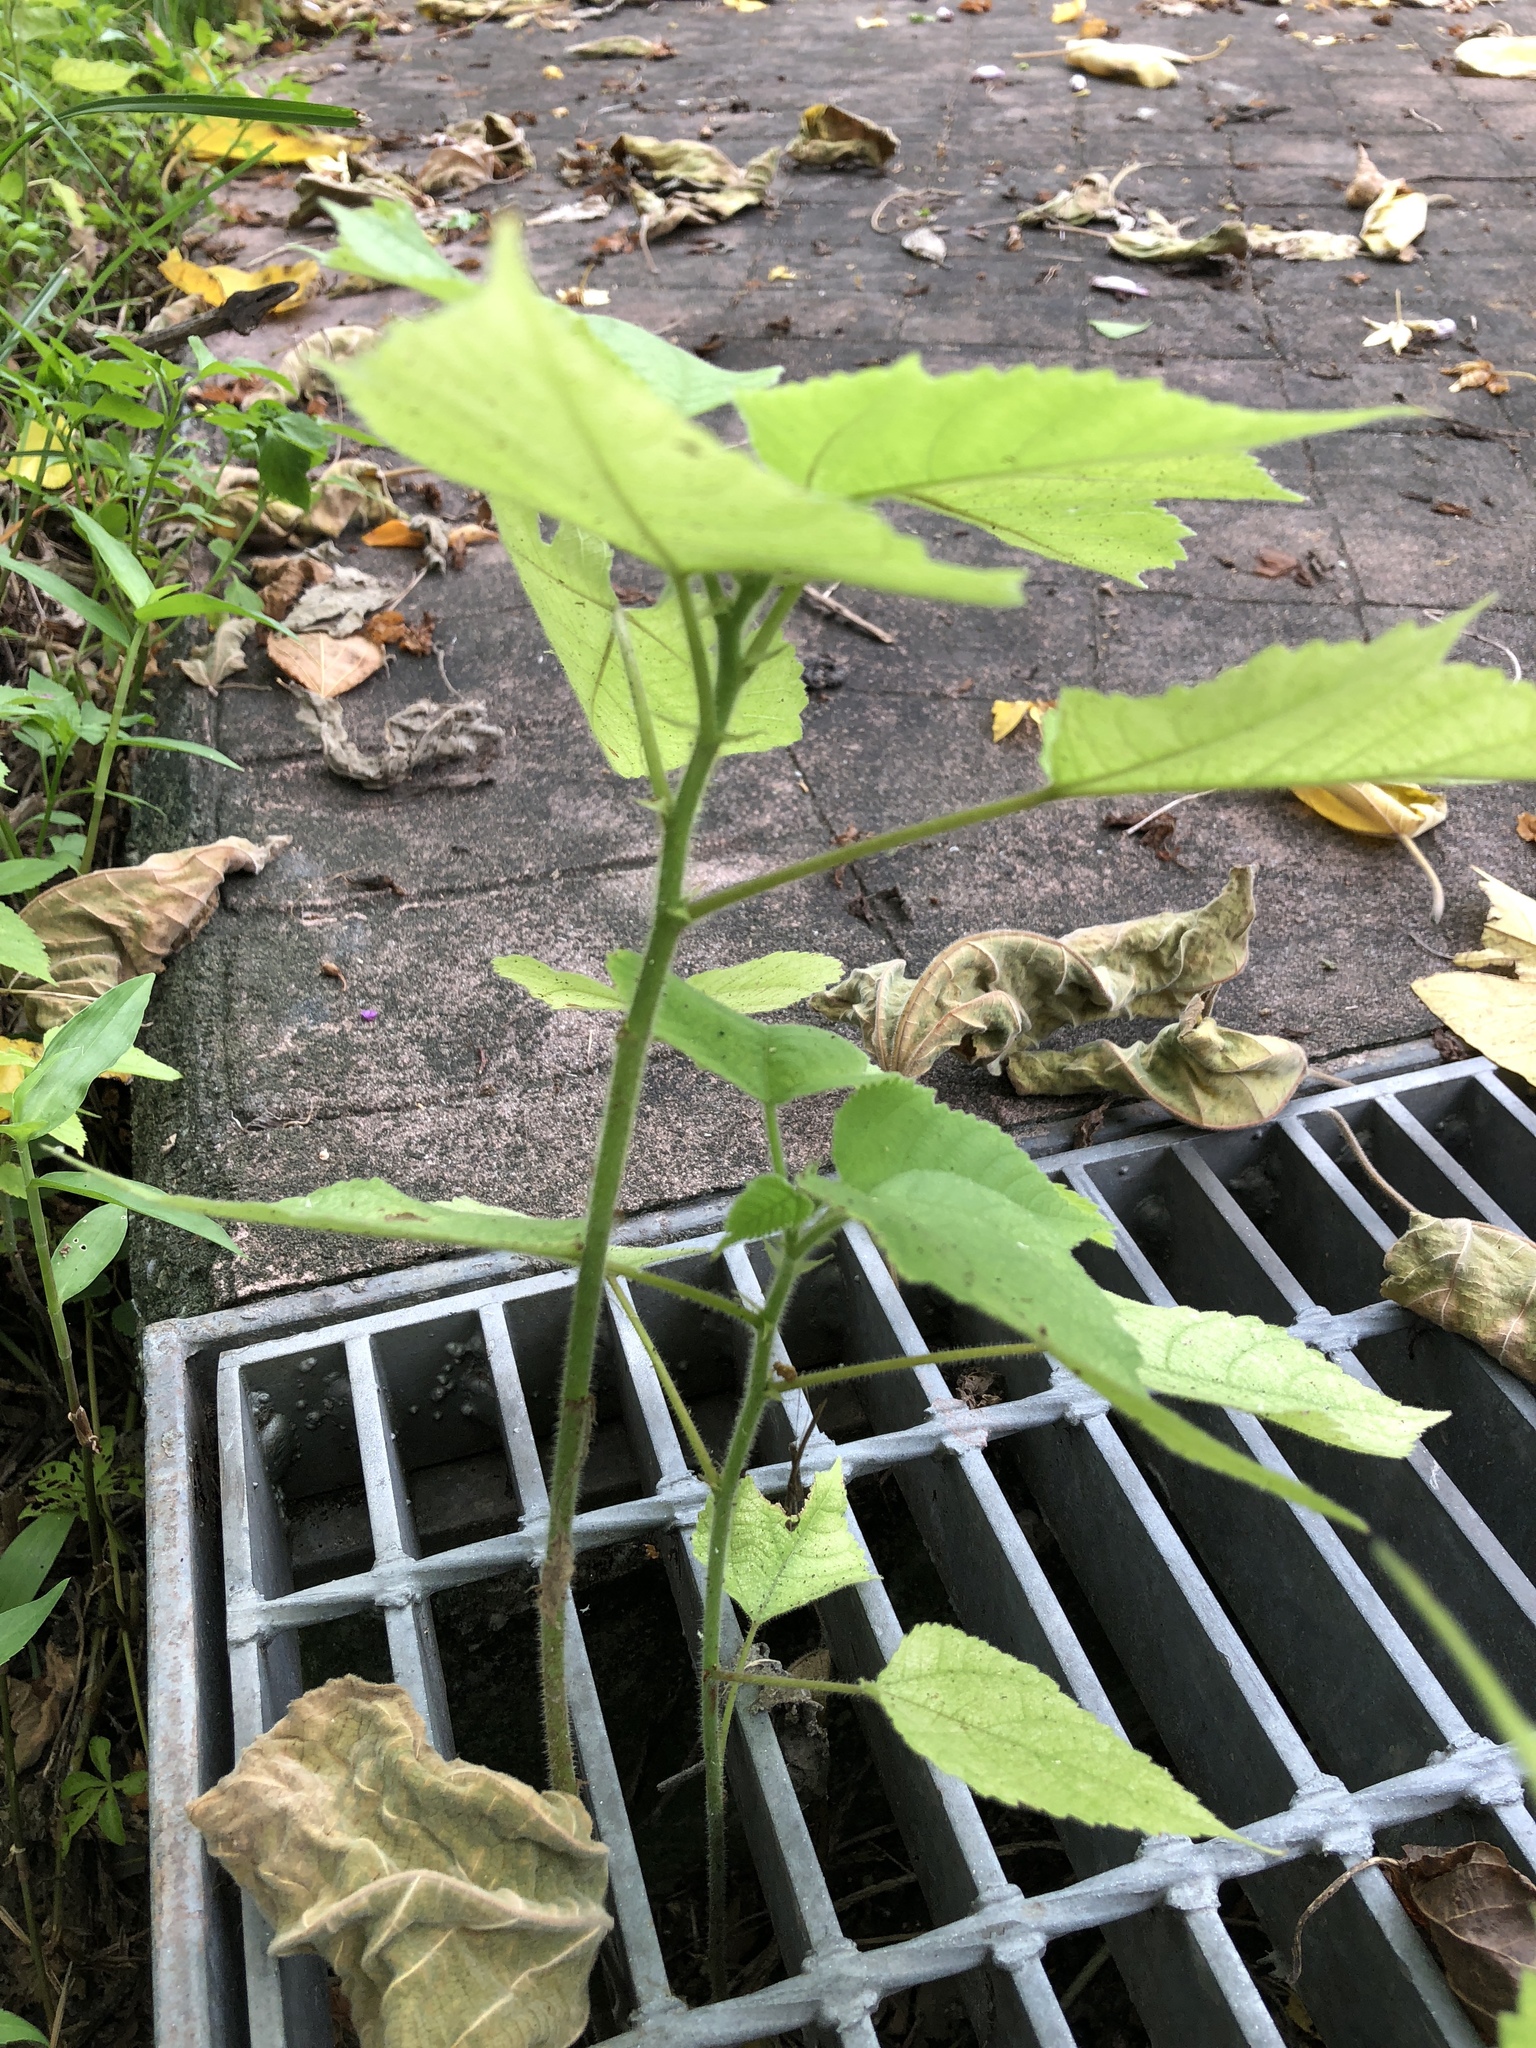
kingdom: Plantae
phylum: Tracheophyta
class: Magnoliopsida
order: Rosales
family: Moraceae
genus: Broussonetia
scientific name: Broussonetia papyrifera
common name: Paper mulberry
